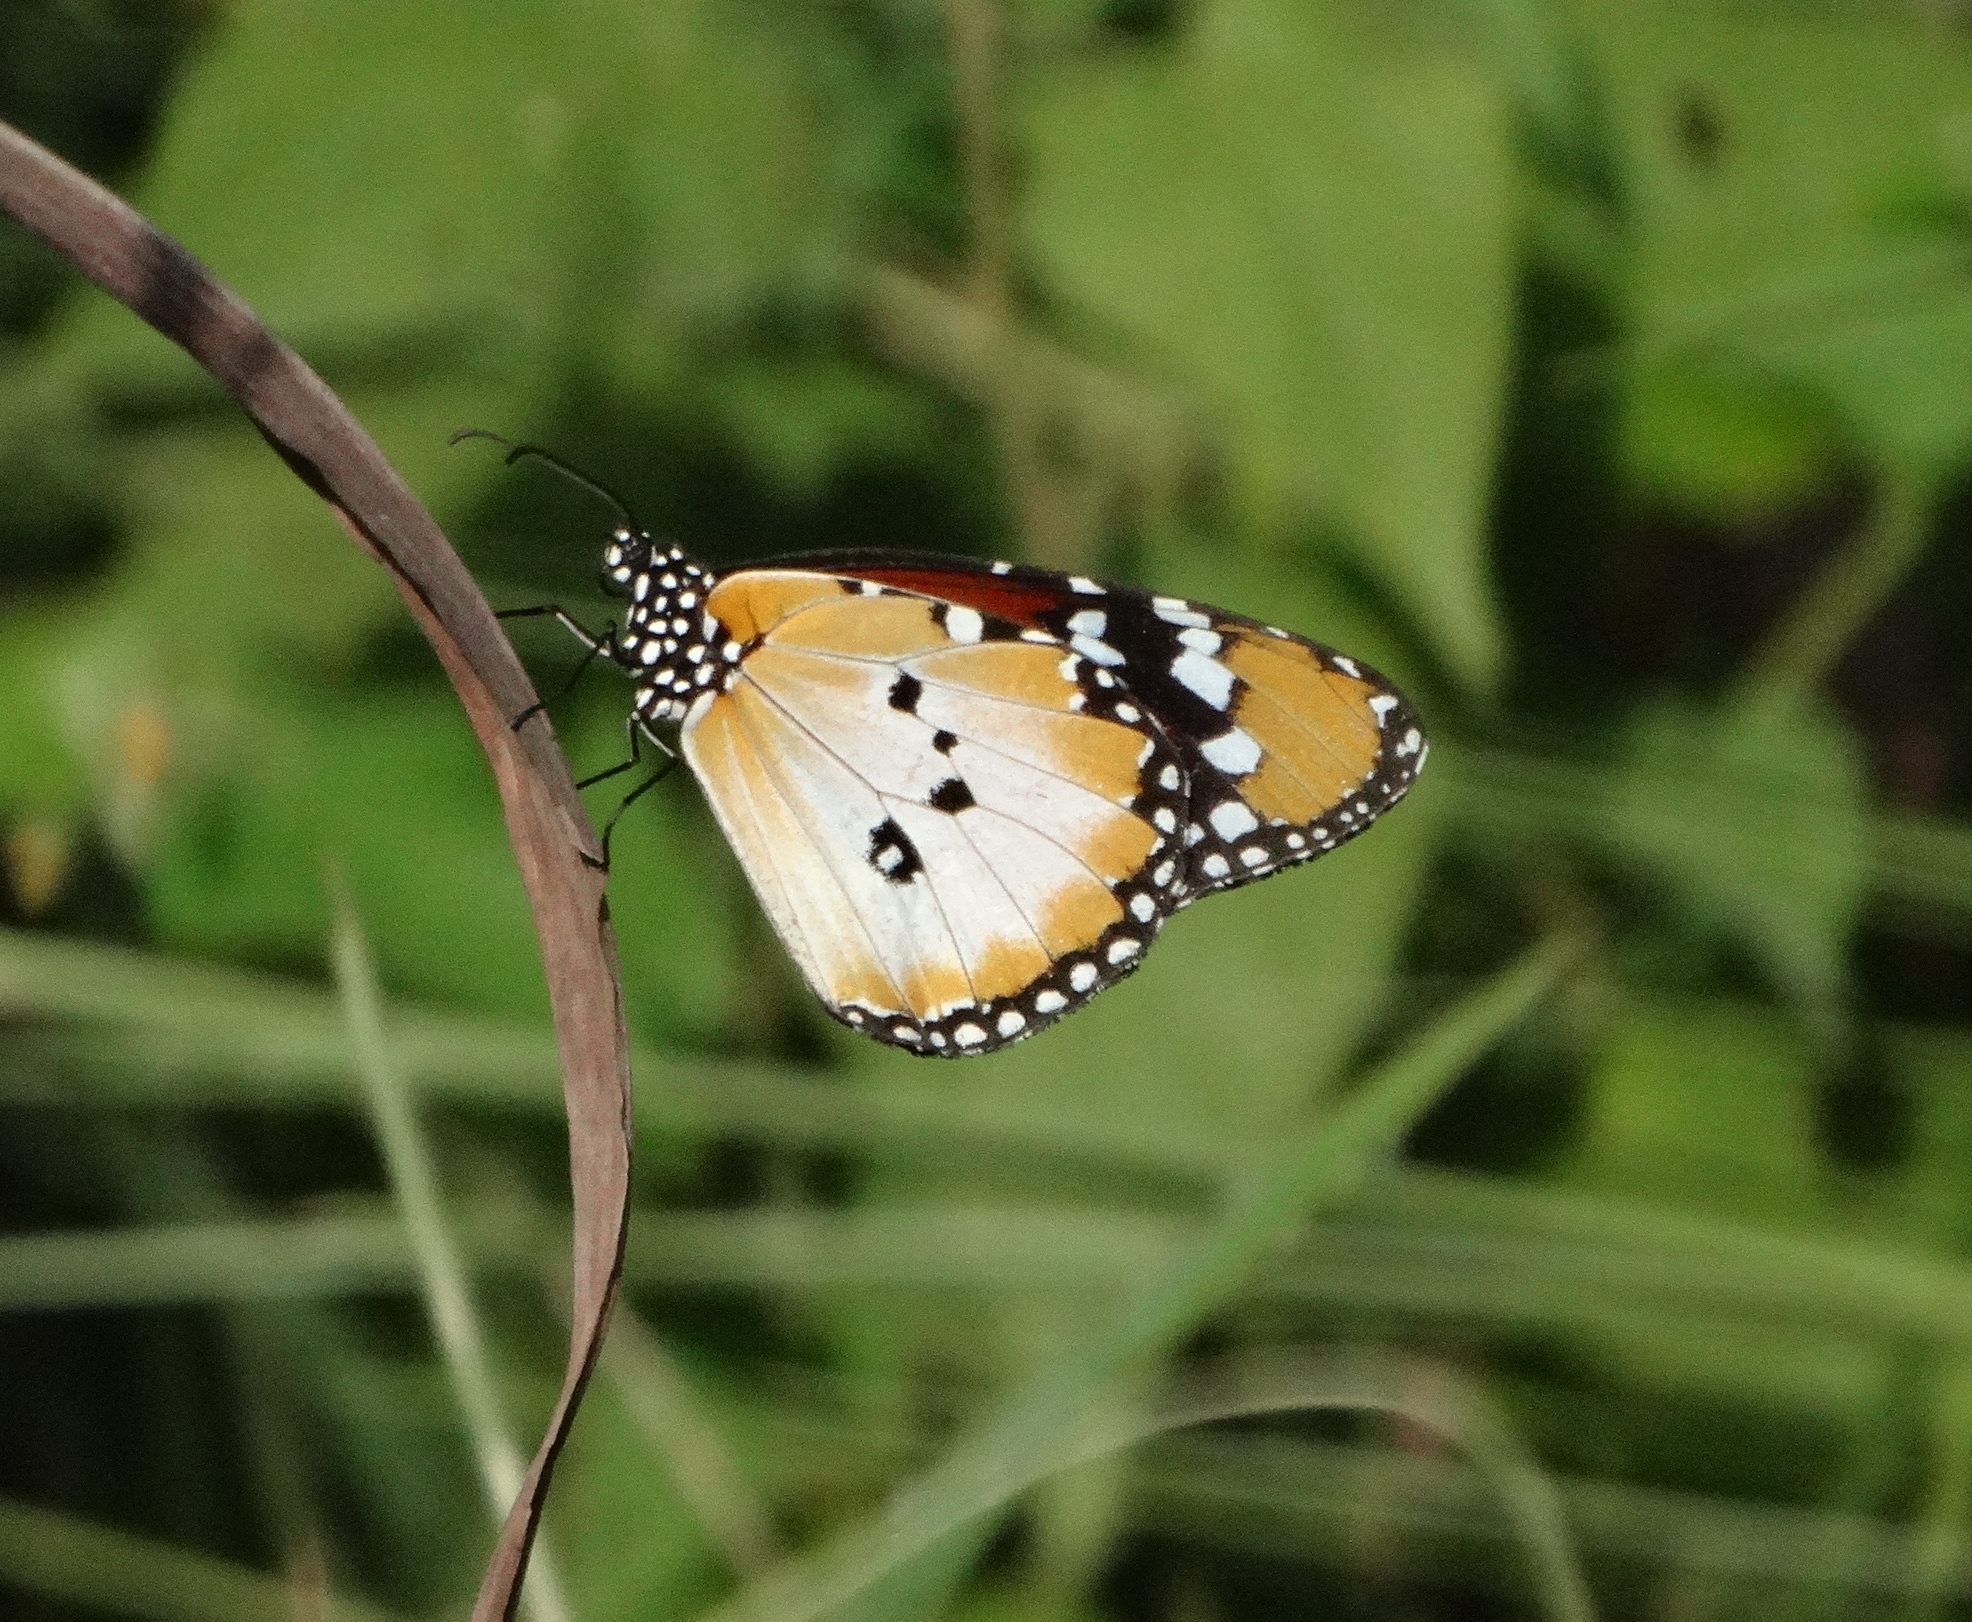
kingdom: Animalia
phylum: Arthropoda
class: Insecta
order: Lepidoptera
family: Nymphalidae
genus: Danaus
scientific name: Danaus chrysippus
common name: Plain tiger
